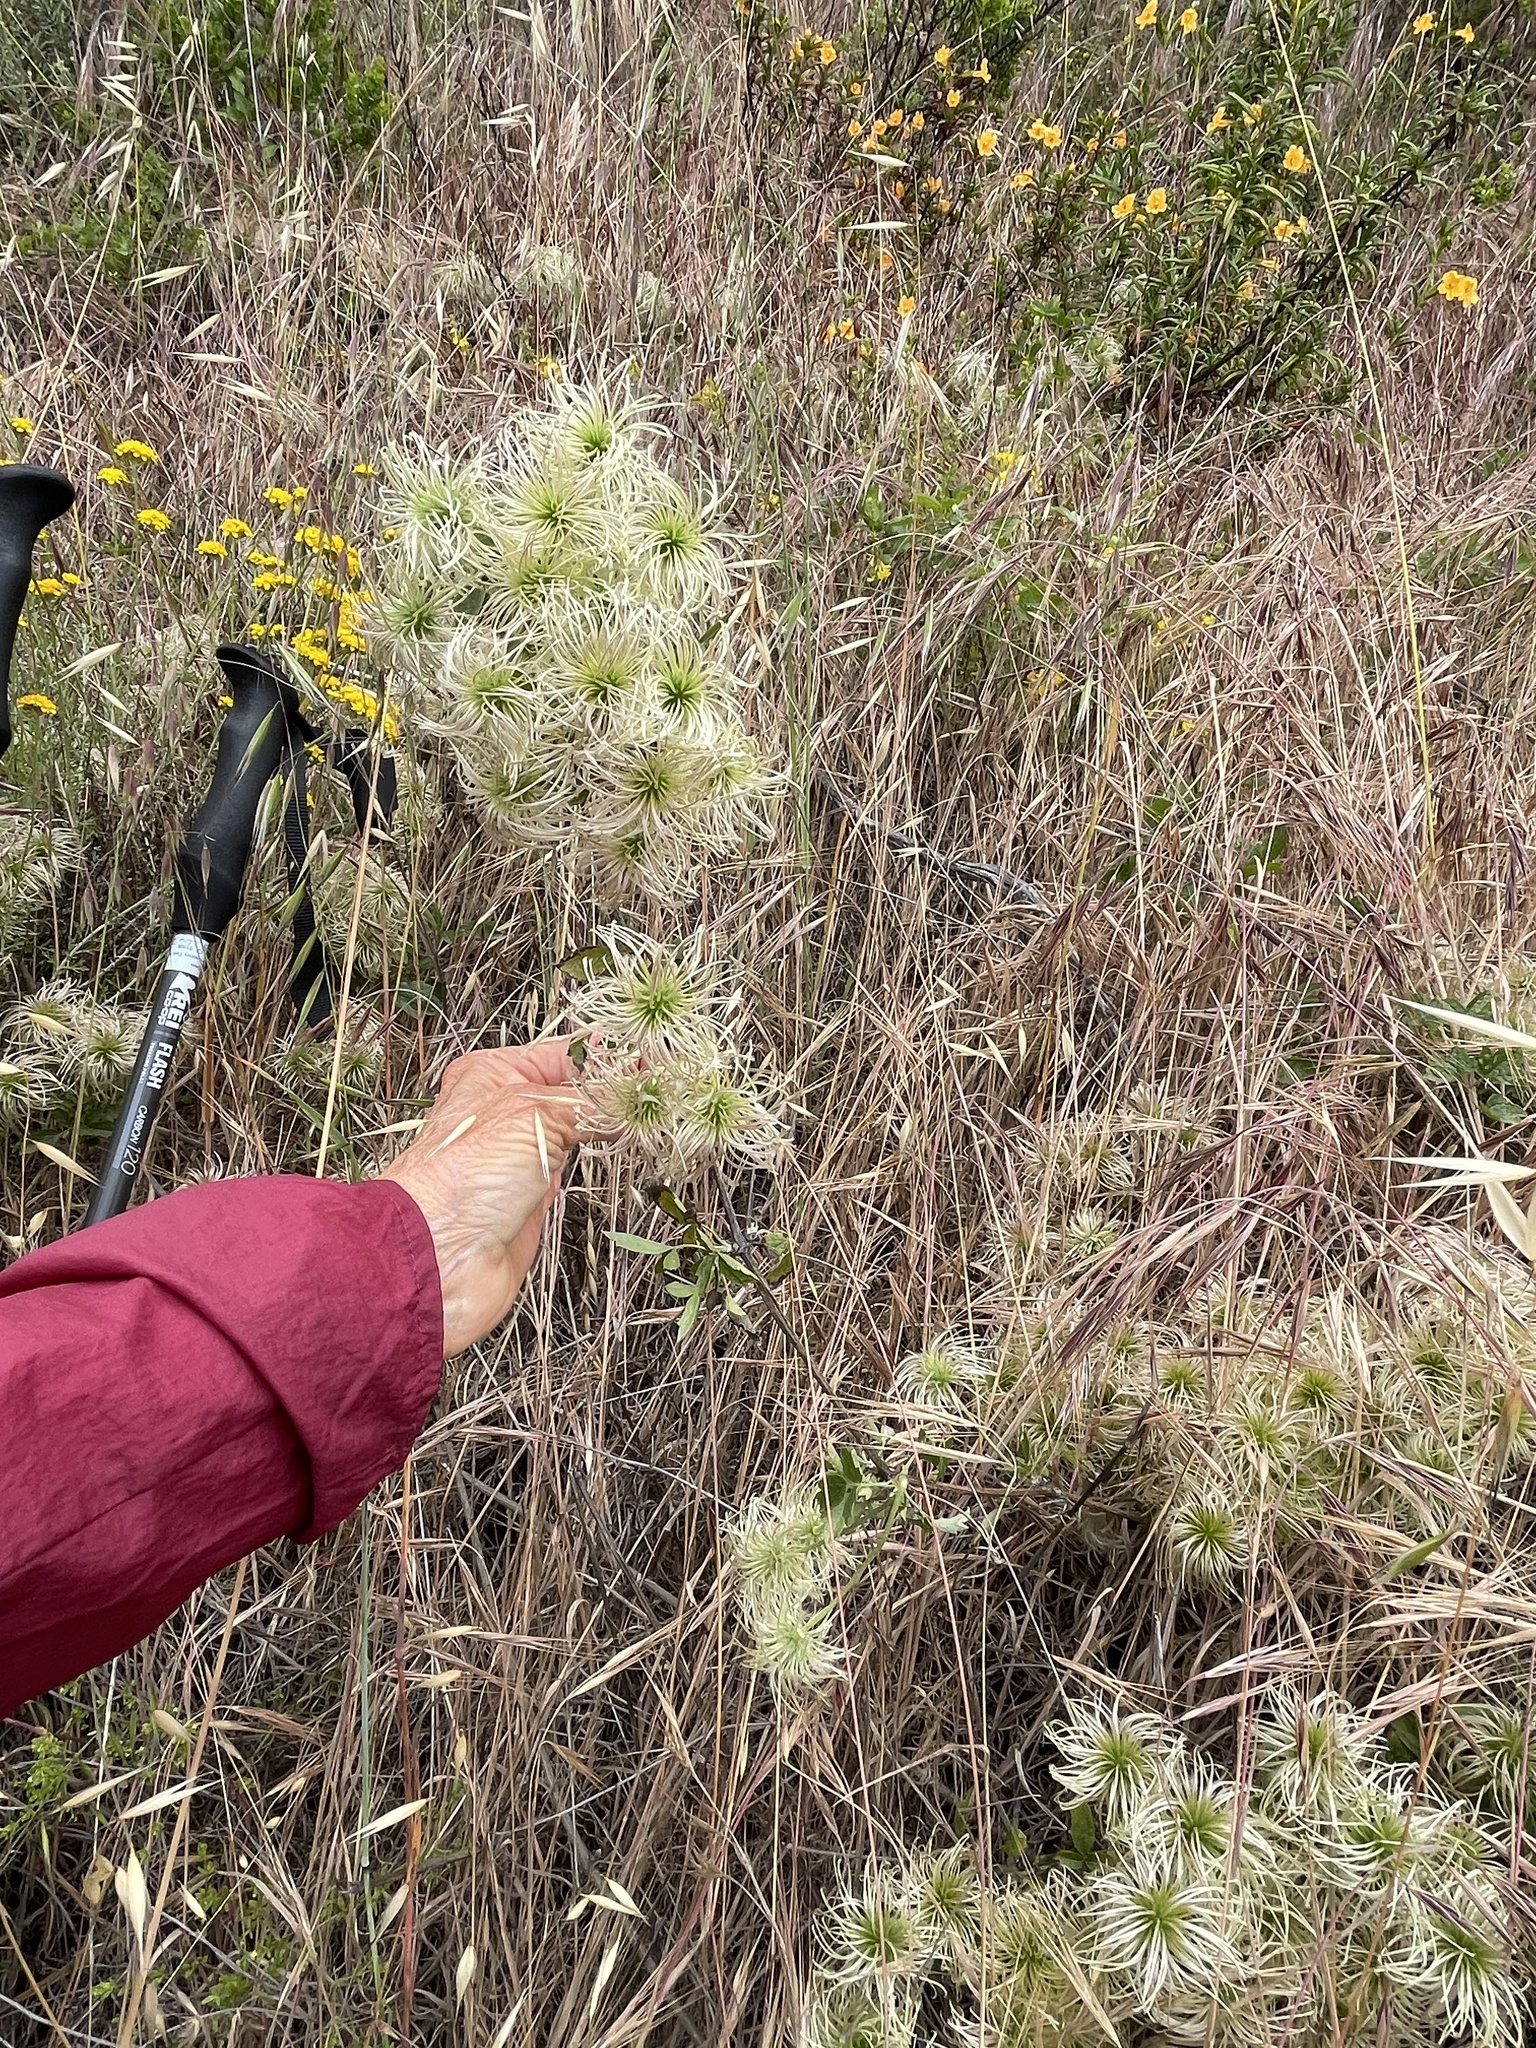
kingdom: Plantae
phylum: Tracheophyta
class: Magnoliopsida
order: Ranunculales
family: Ranunculaceae
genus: Clematis
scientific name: Clematis lasiantha
